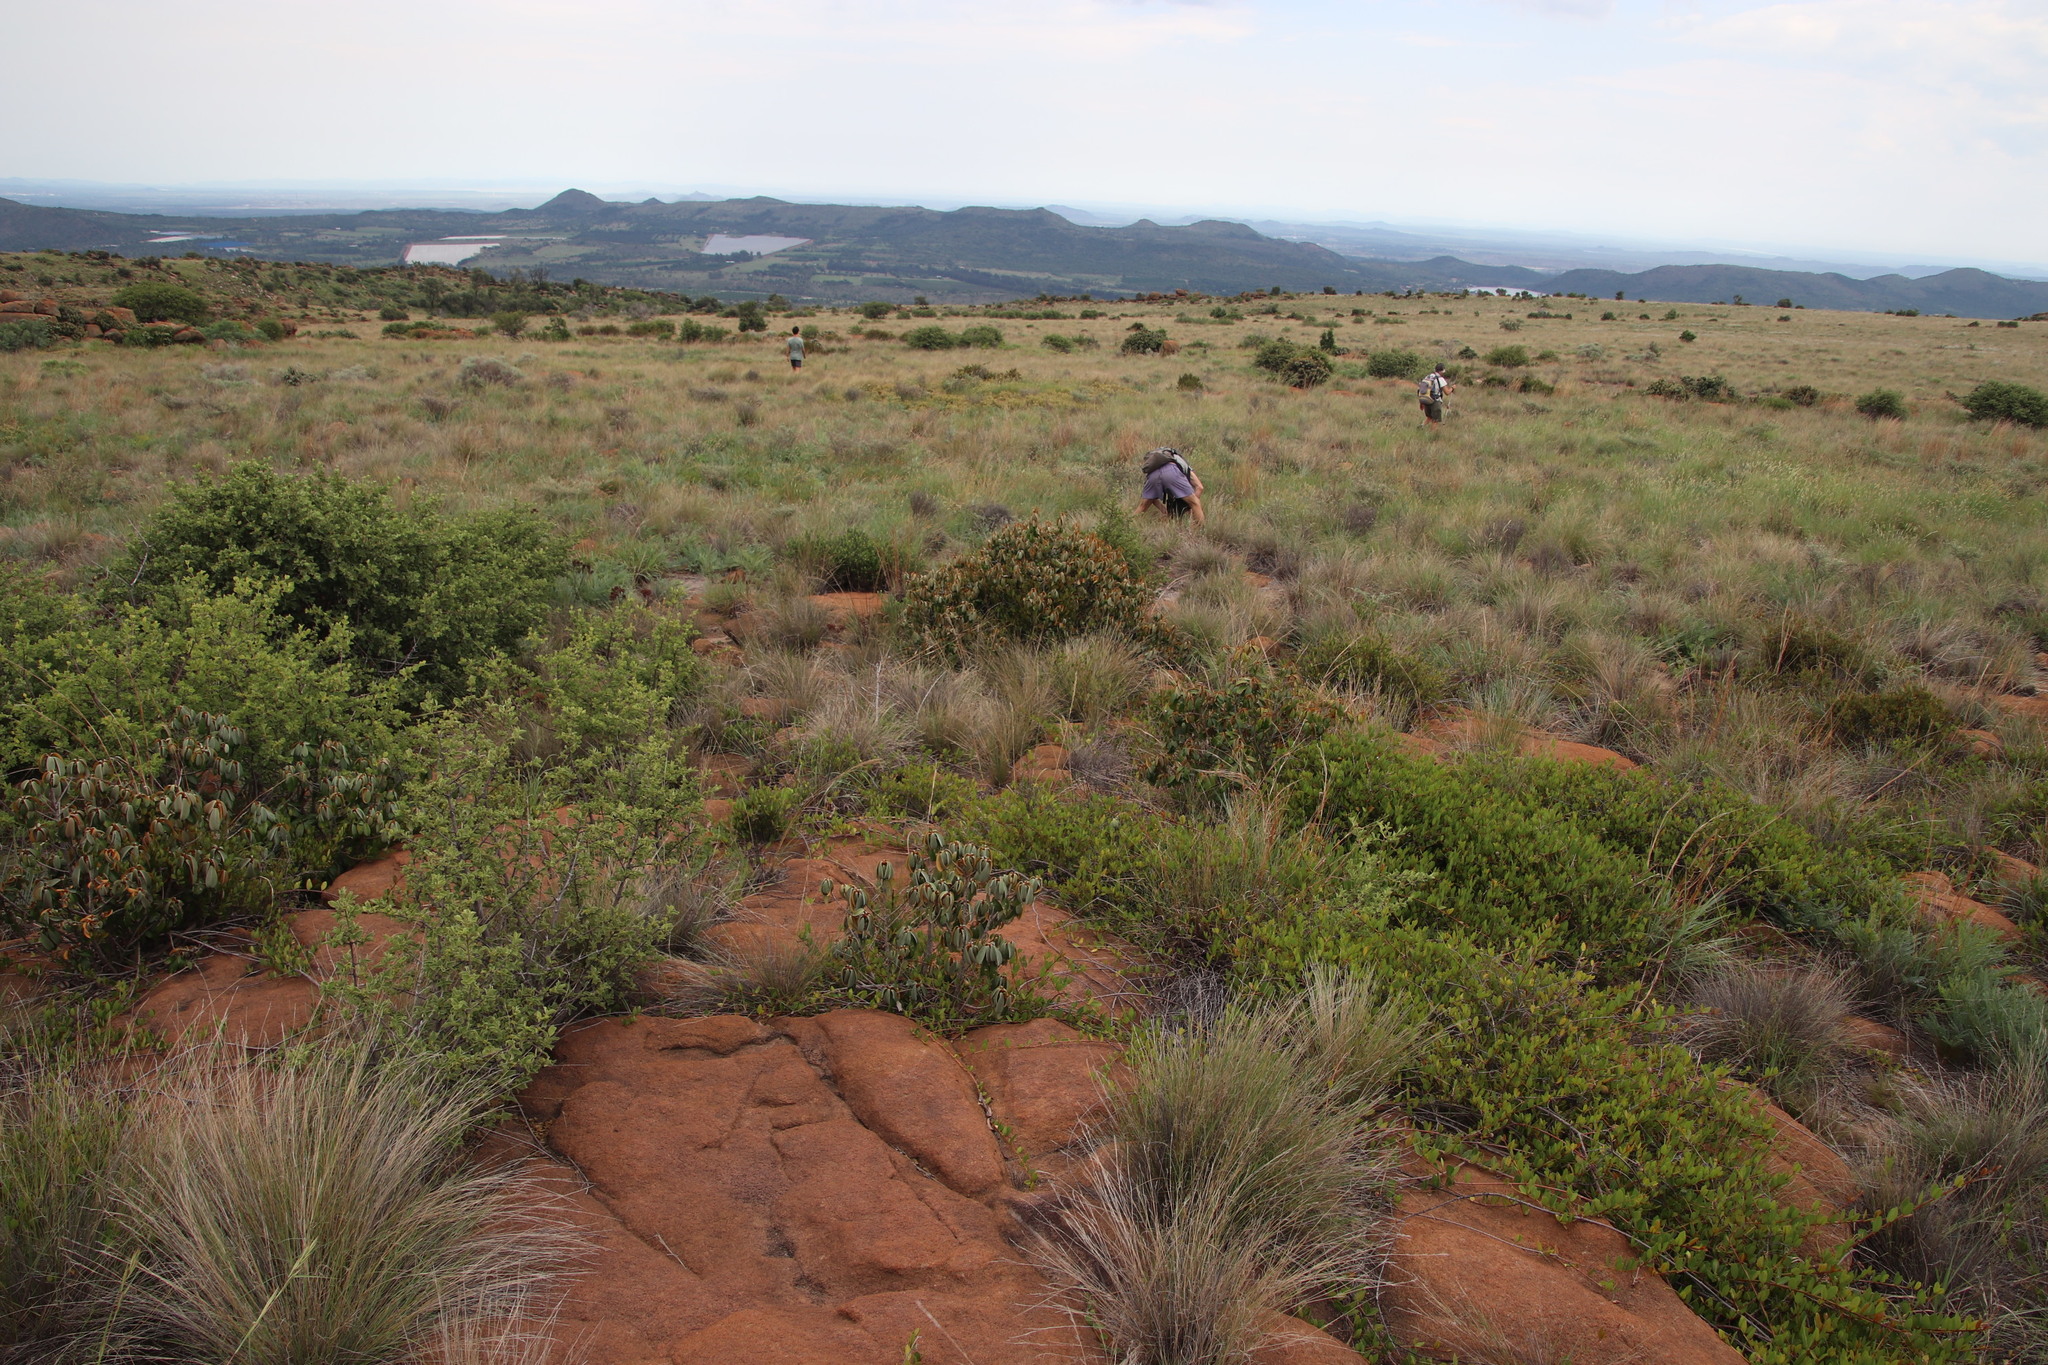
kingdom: Plantae
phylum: Tracheophyta
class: Magnoliopsida
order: Ericales
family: Sapotaceae
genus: Englerophytum
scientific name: Englerophytum magalismontanum
